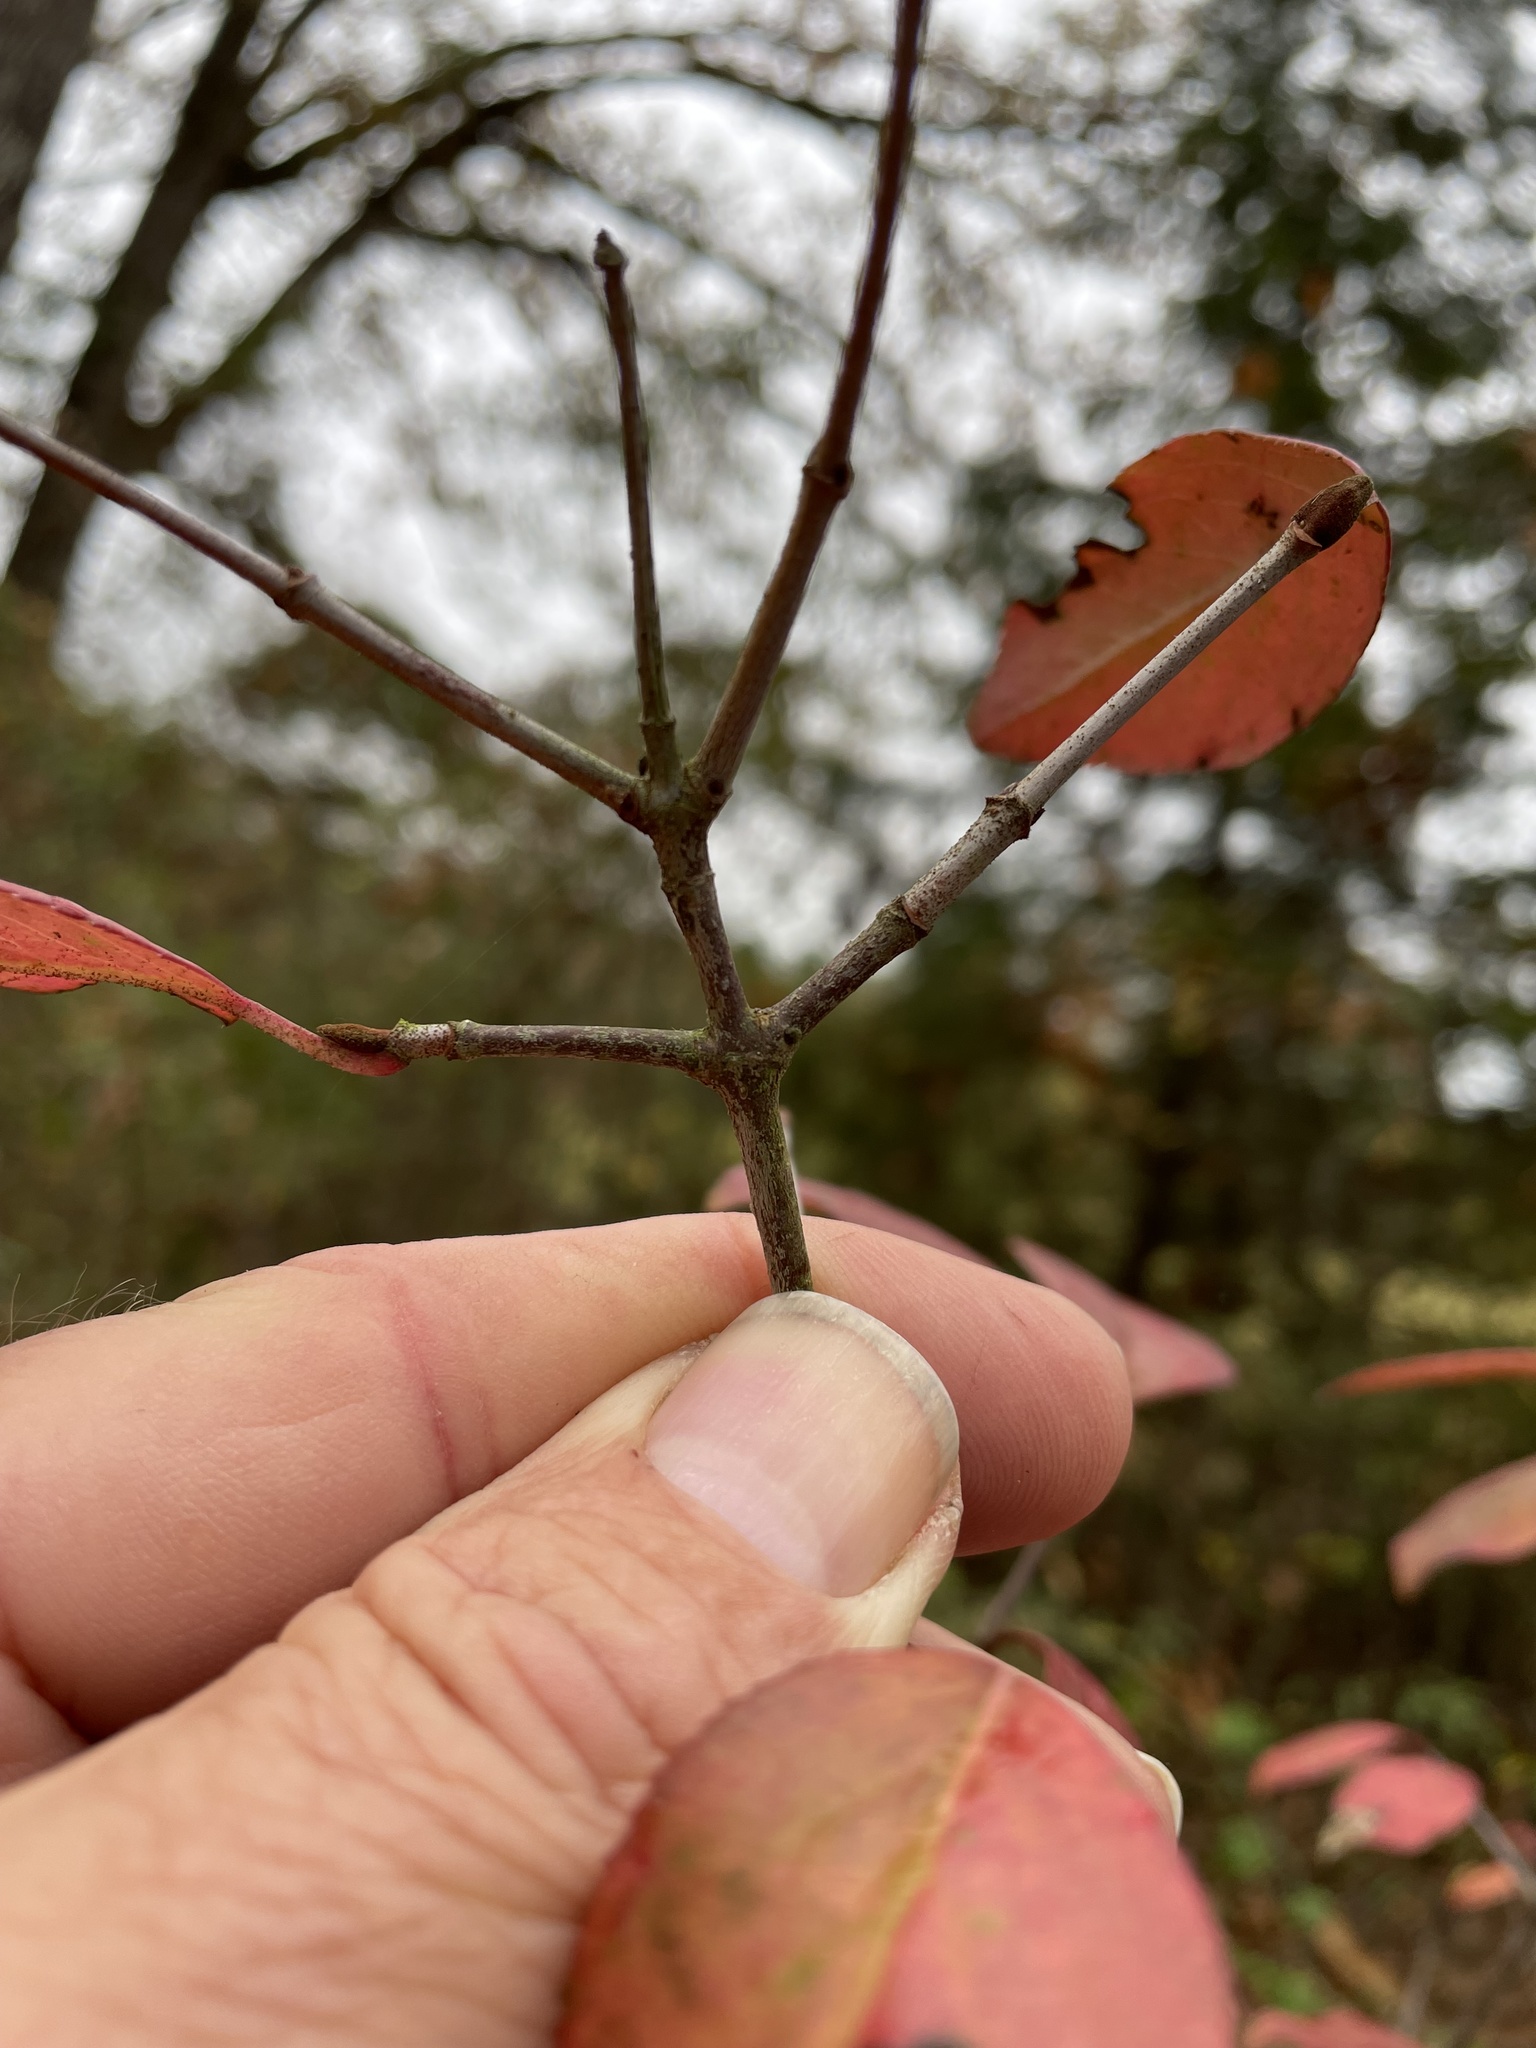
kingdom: Plantae
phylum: Tracheophyta
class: Magnoliopsida
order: Dipsacales
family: Viburnaceae
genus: Viburnum
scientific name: Viburnum rufidulum
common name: Blue haw
